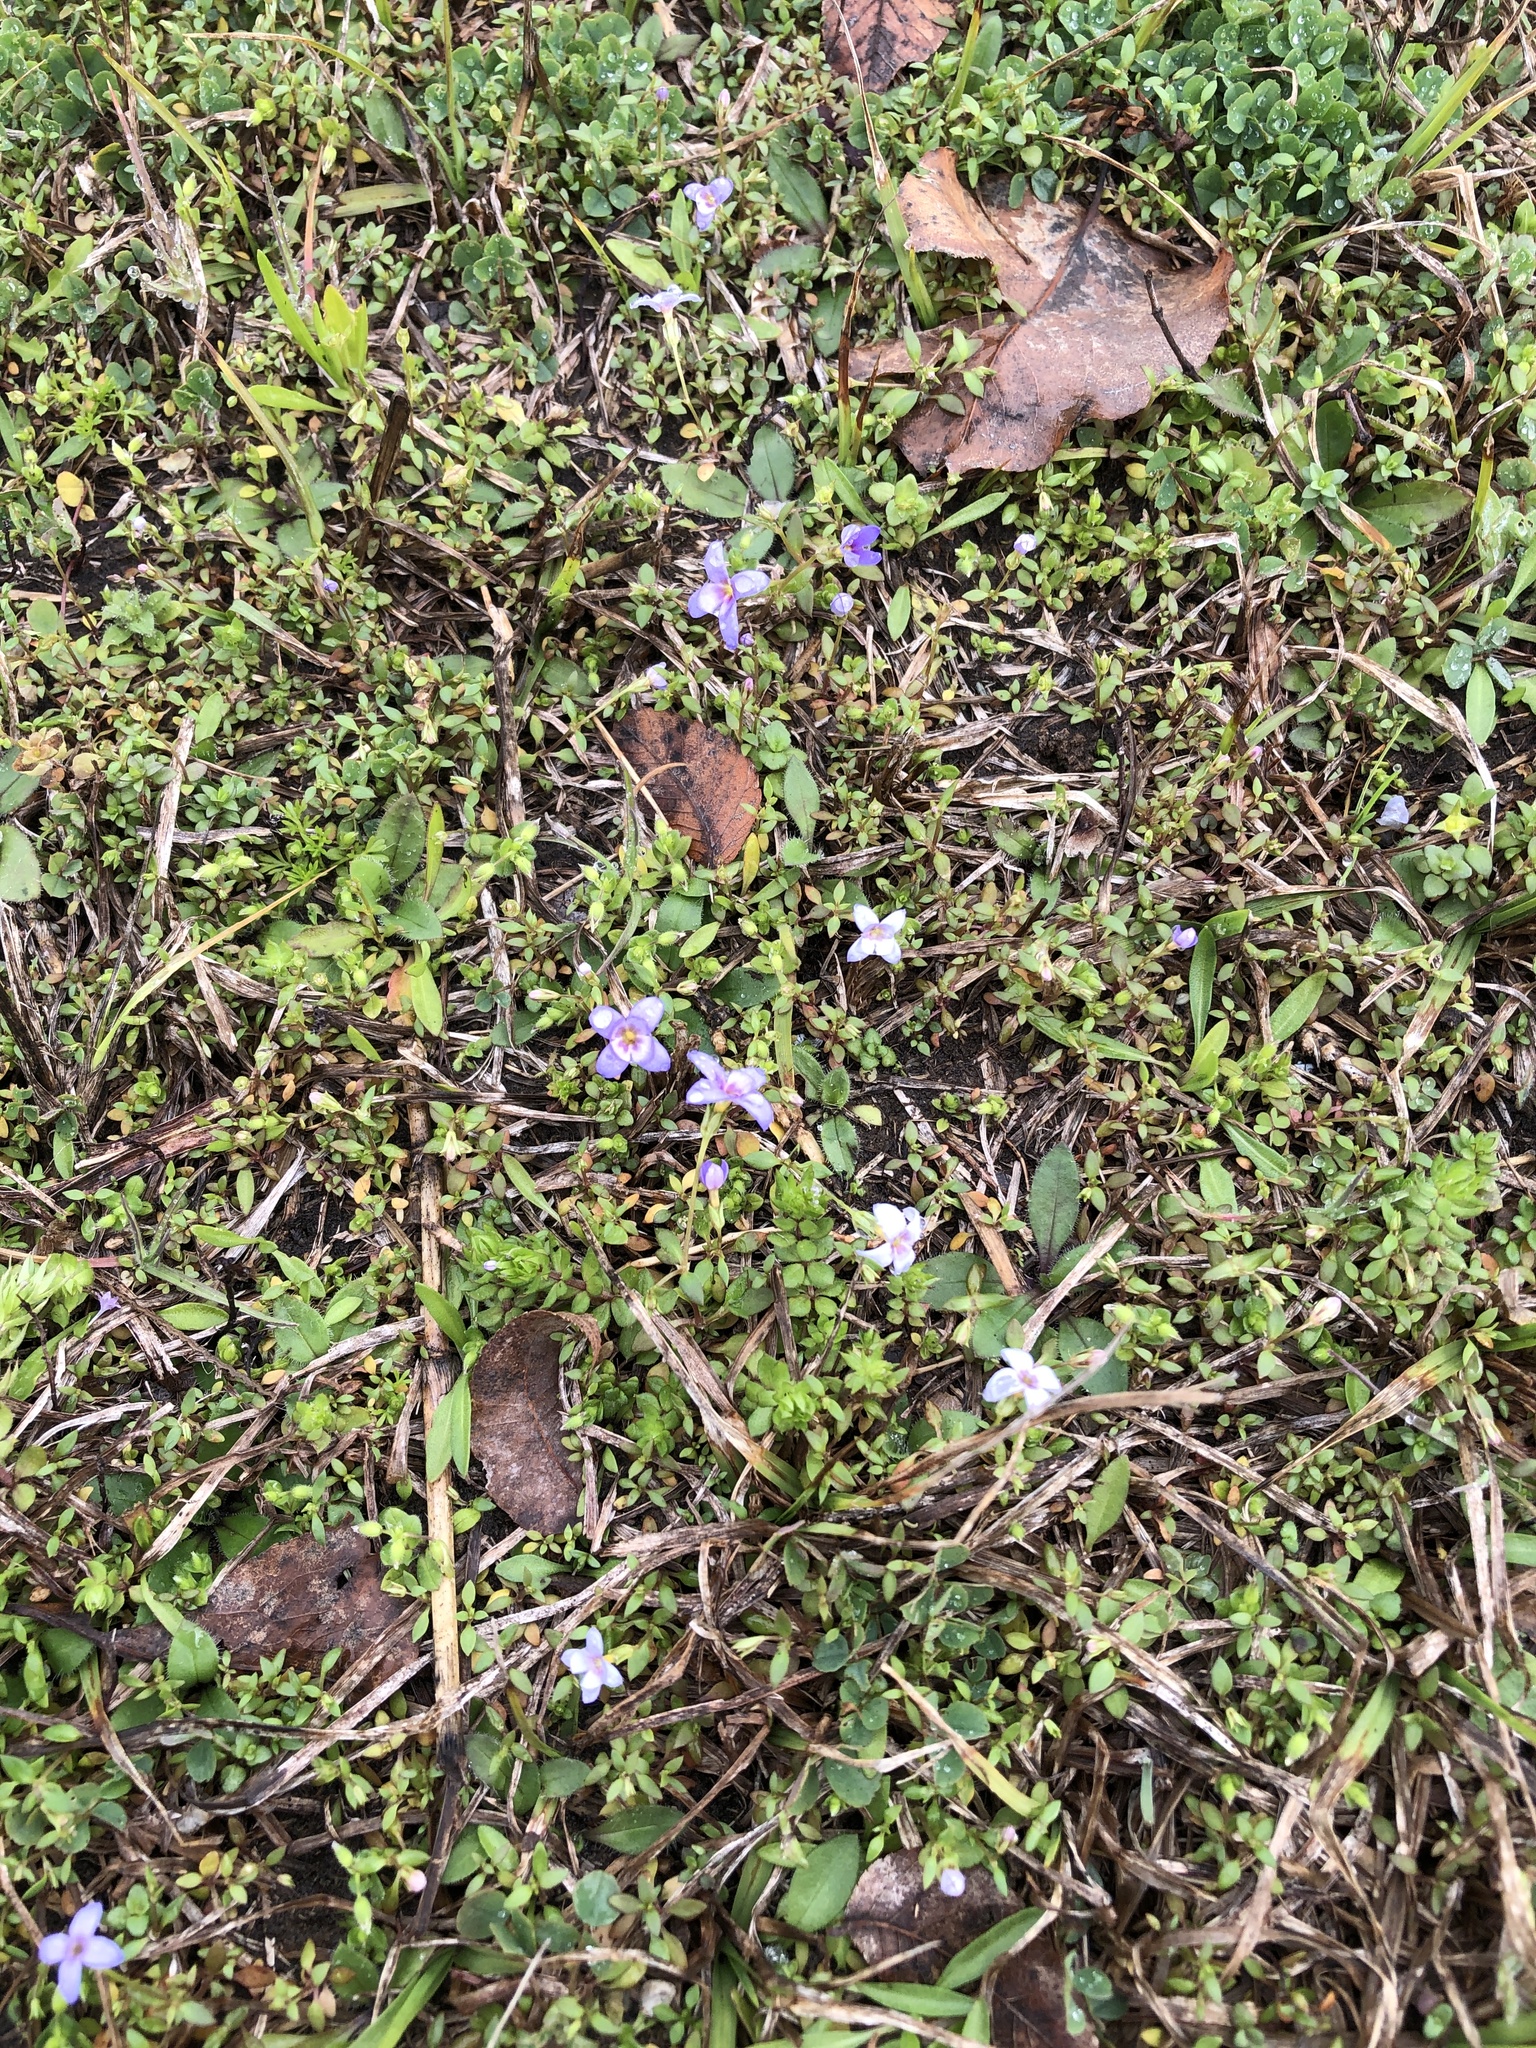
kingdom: Plantae
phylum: Tracheophyta
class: Magnoliopsida
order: Gentianales
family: Rubiaceae
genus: Houstonia
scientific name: Houstonia pusilla
